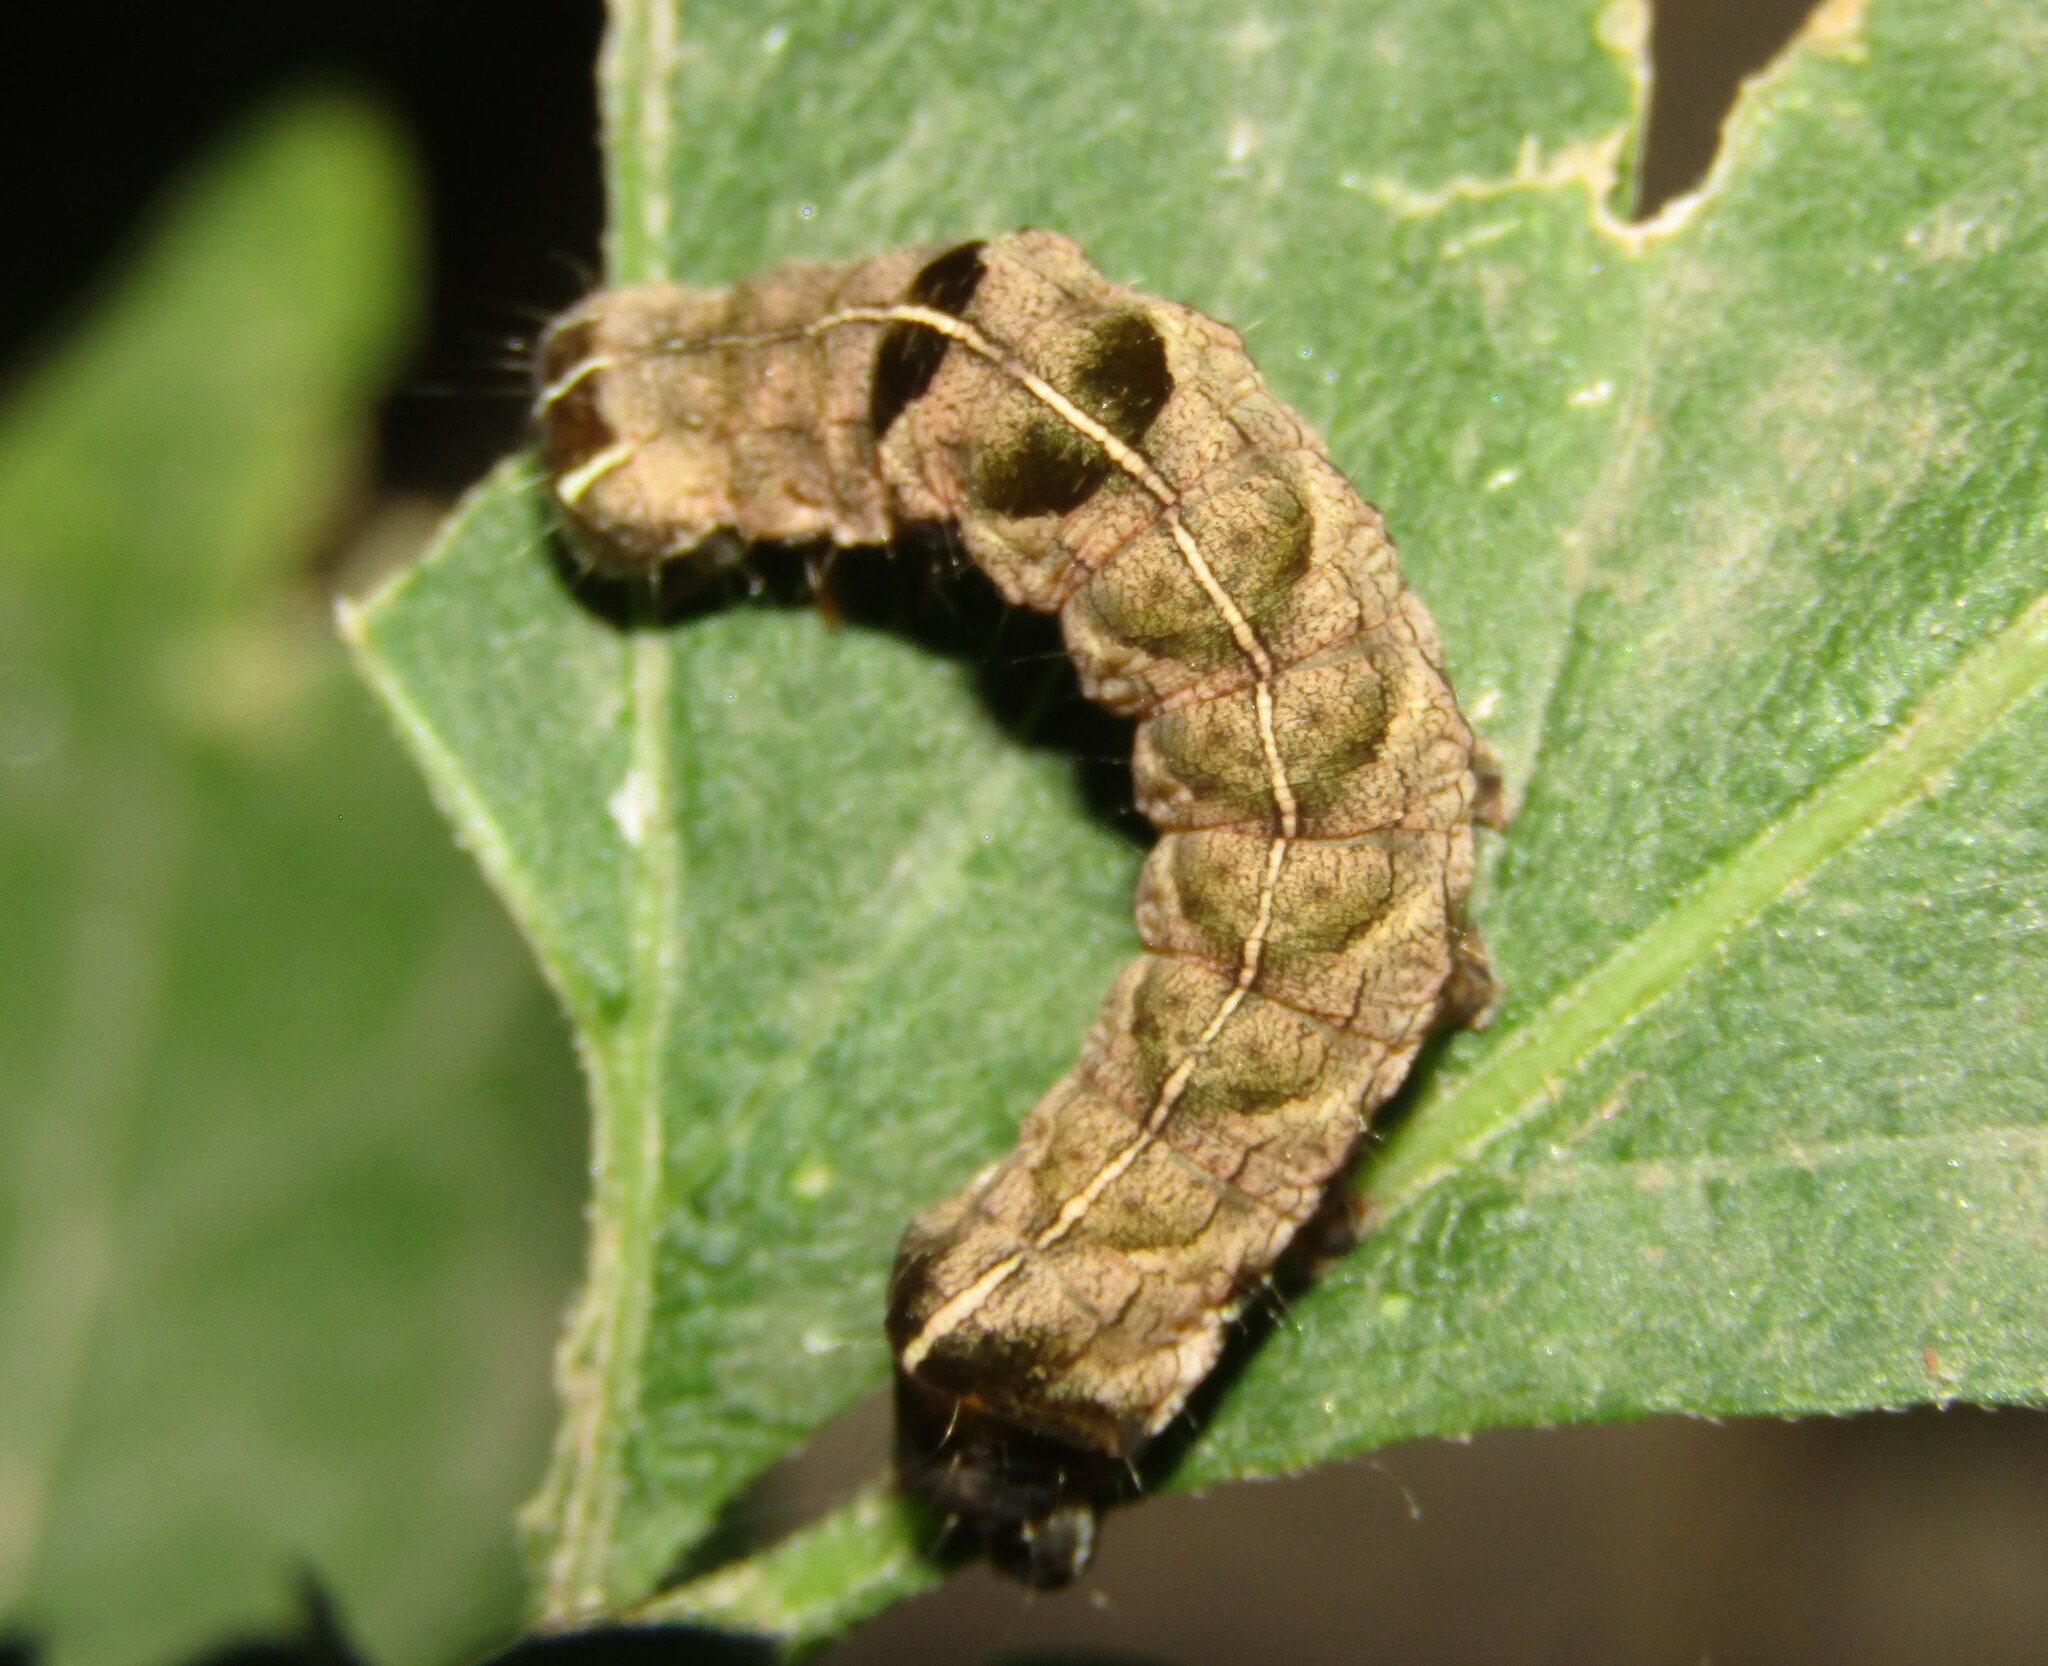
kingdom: Animalia
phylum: Arthropoda
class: Insecta
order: Lepidoptera
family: Noctuidae
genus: Melanchra
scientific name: Melanchra persicariae
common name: Dot moth
